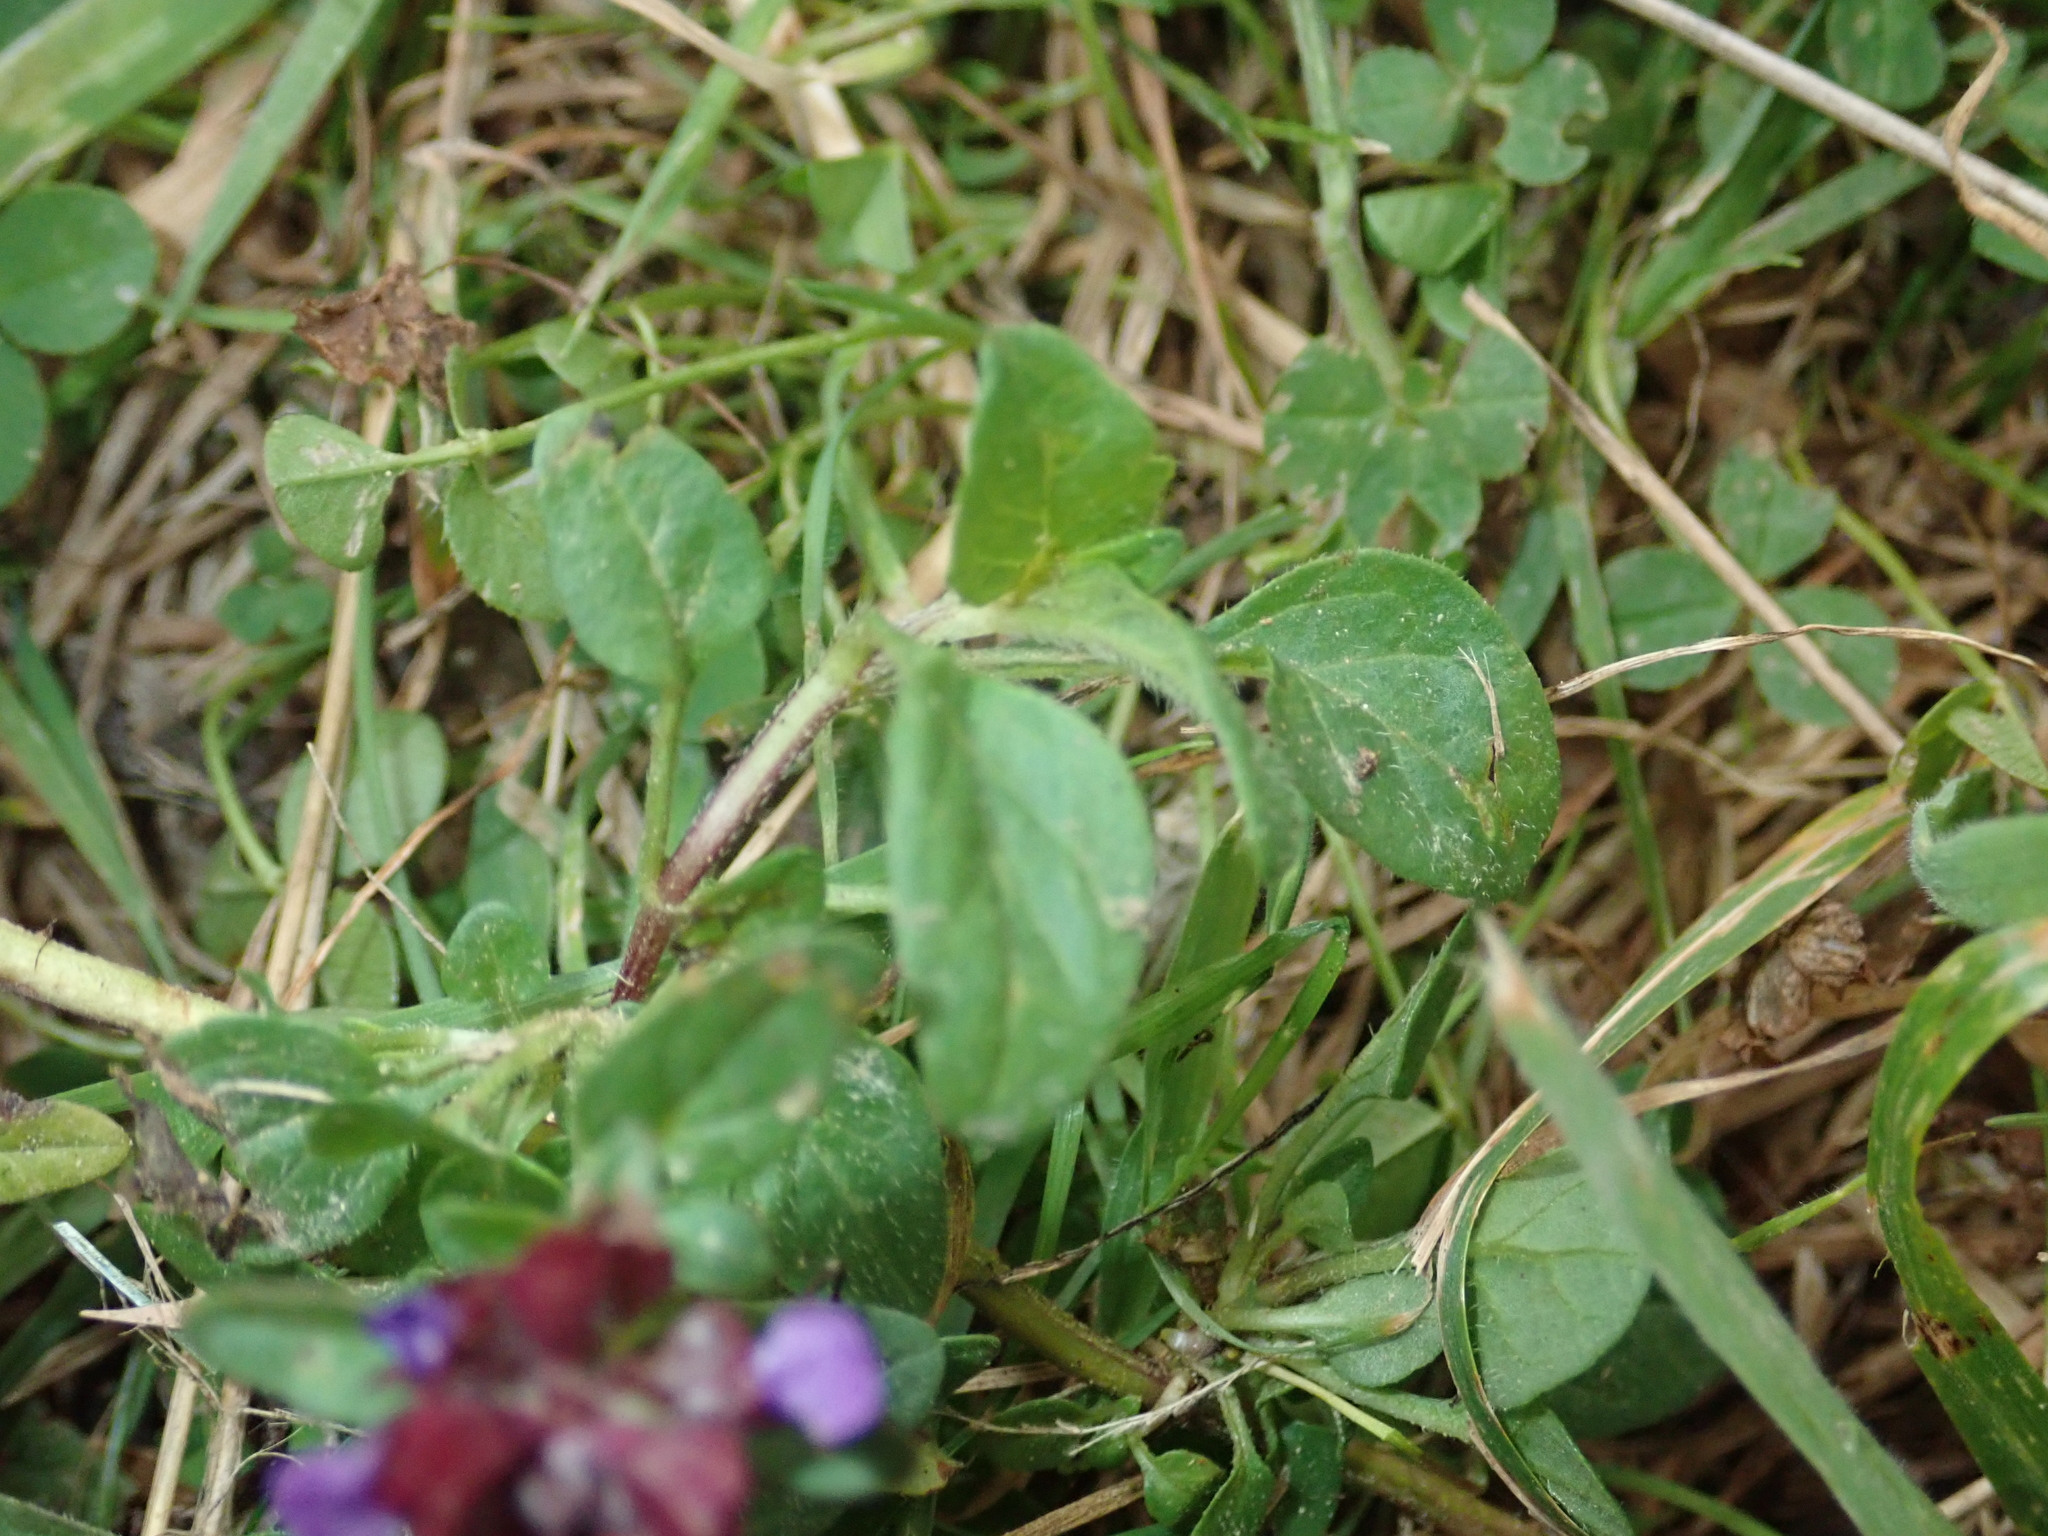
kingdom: Plantae
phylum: Tracheophyta
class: Magnoliopsida
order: Lamiales
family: Lamiaceae
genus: Prunella
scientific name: Prunella vulgaris
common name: Heal-all
